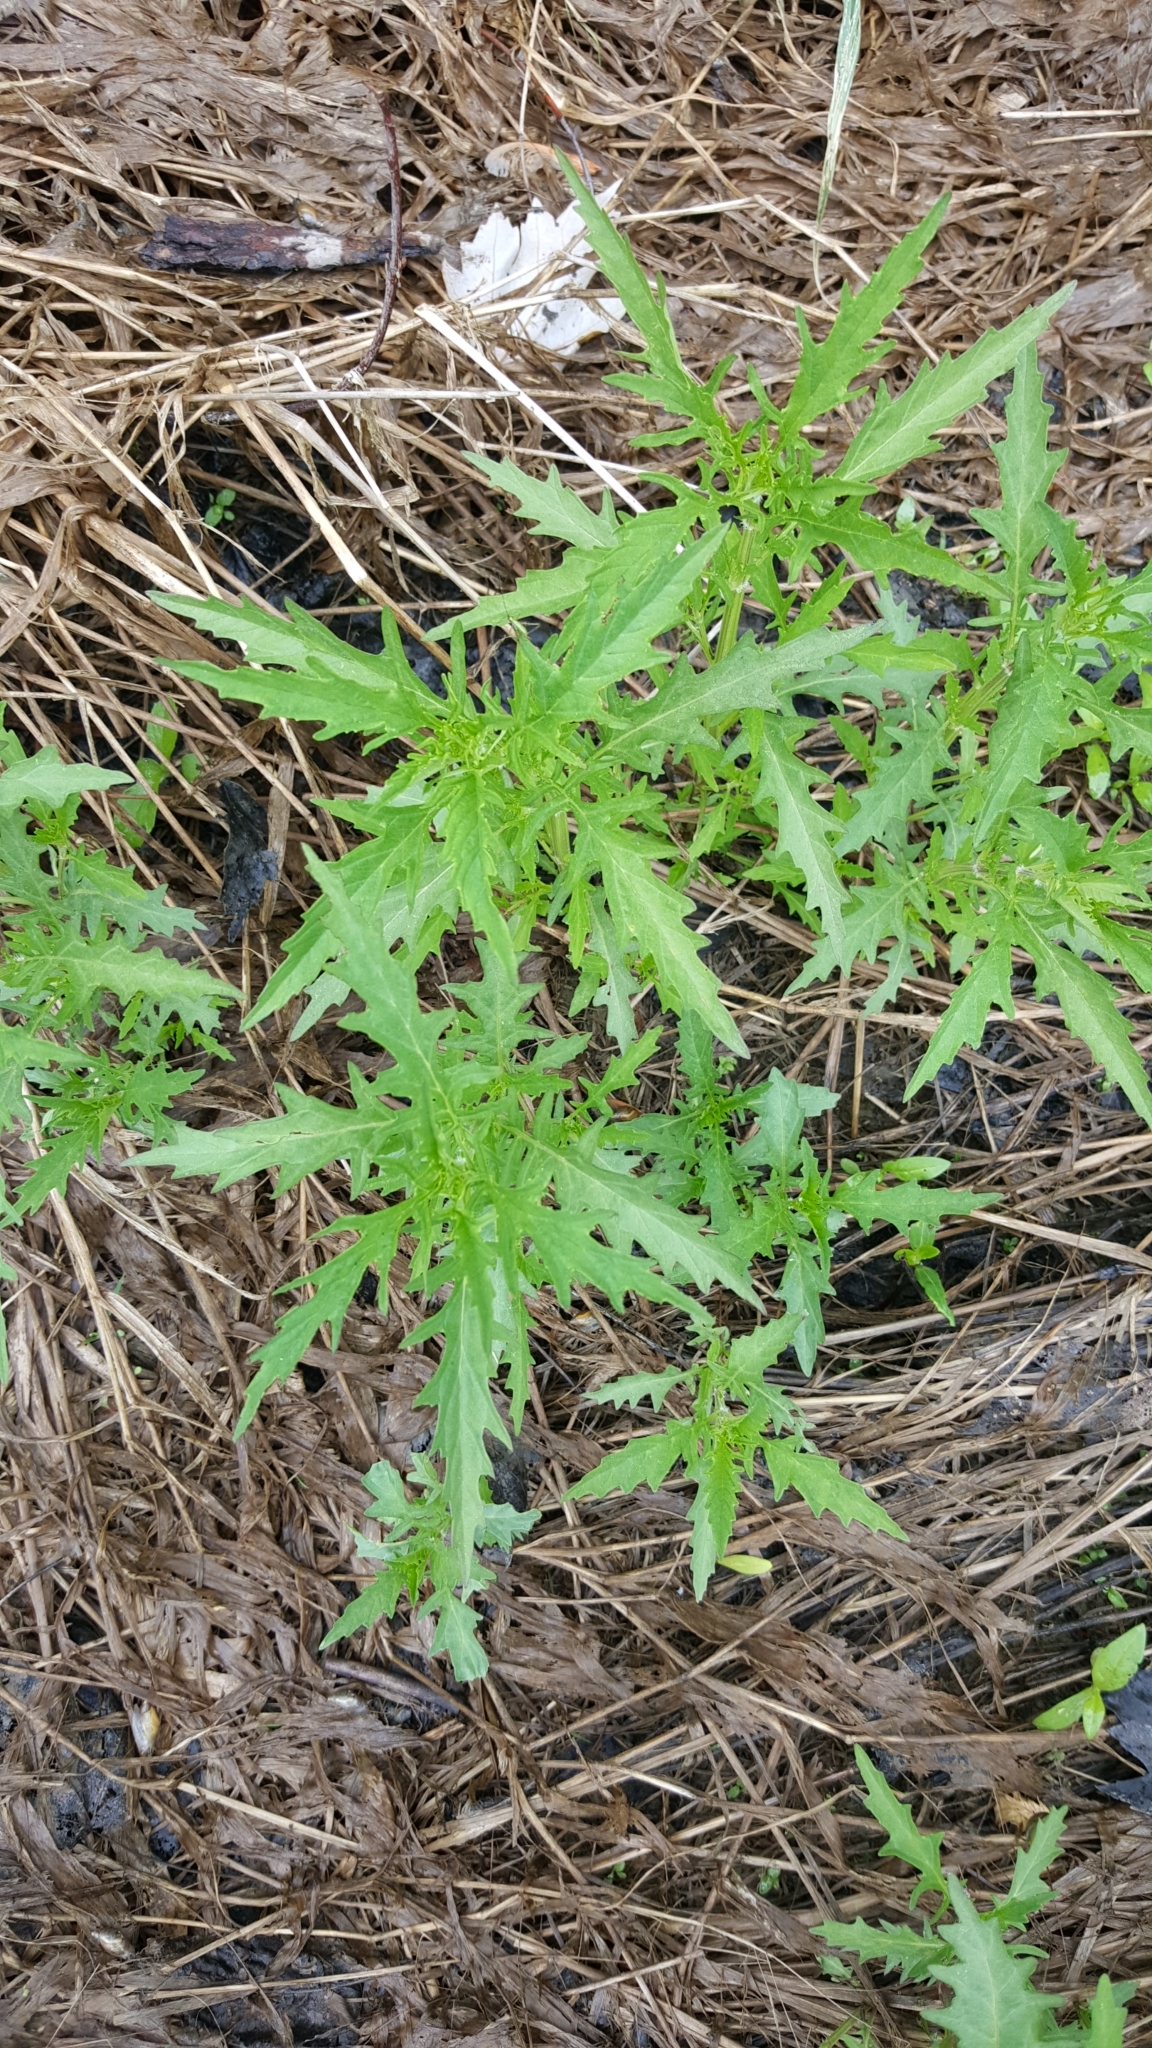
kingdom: Plantae
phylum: Tracheophyta
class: Magnoliopsida
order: Lamiales
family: Lamiaceae
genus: Lycopus
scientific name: Lycopus americanus
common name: American bugleweed
